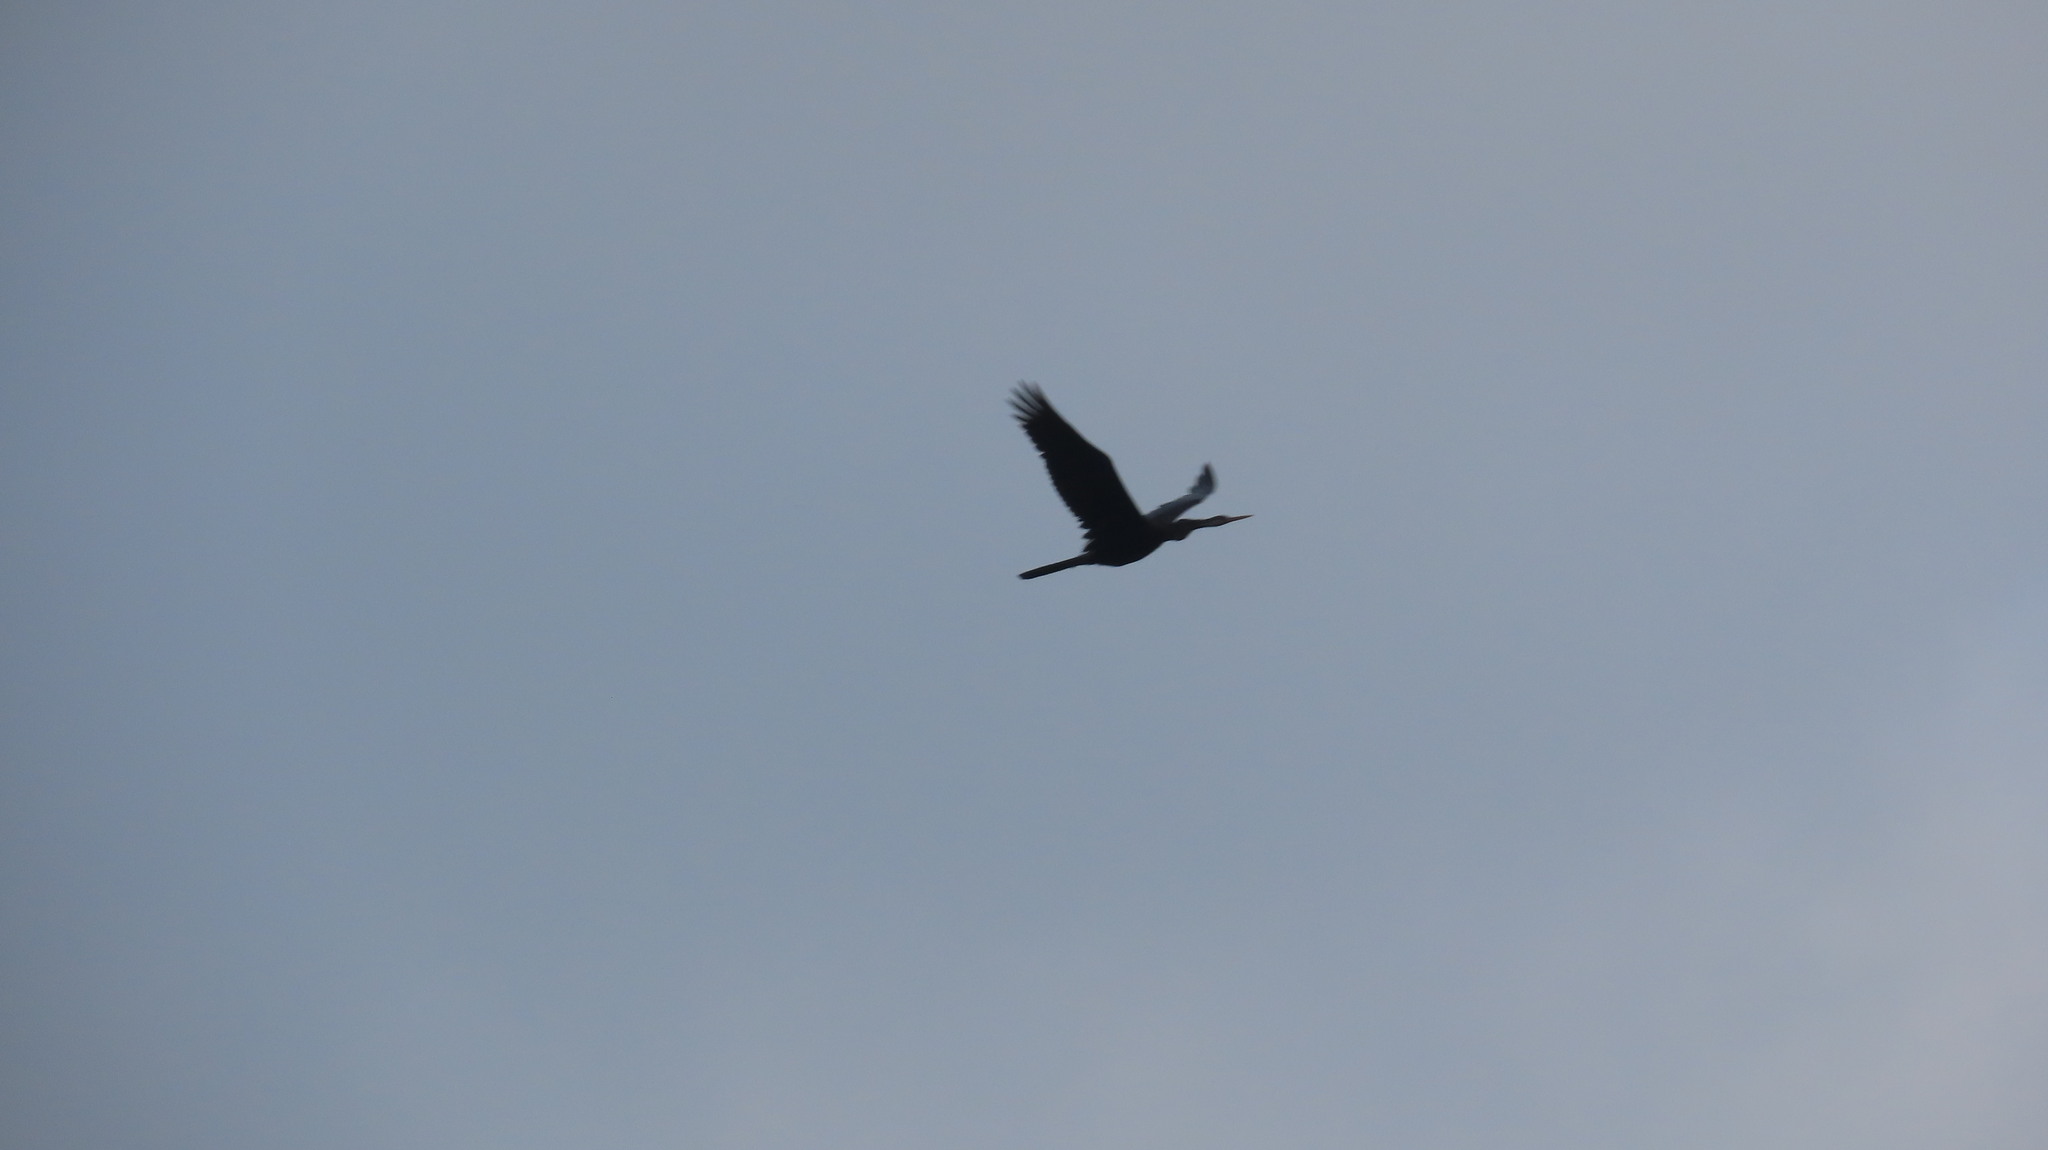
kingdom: Animalia
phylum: Chordata
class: Aves
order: Suliformes
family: Anhingidae
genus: Anhinga
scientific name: Anhinga melanogaster
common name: Oriental darter
